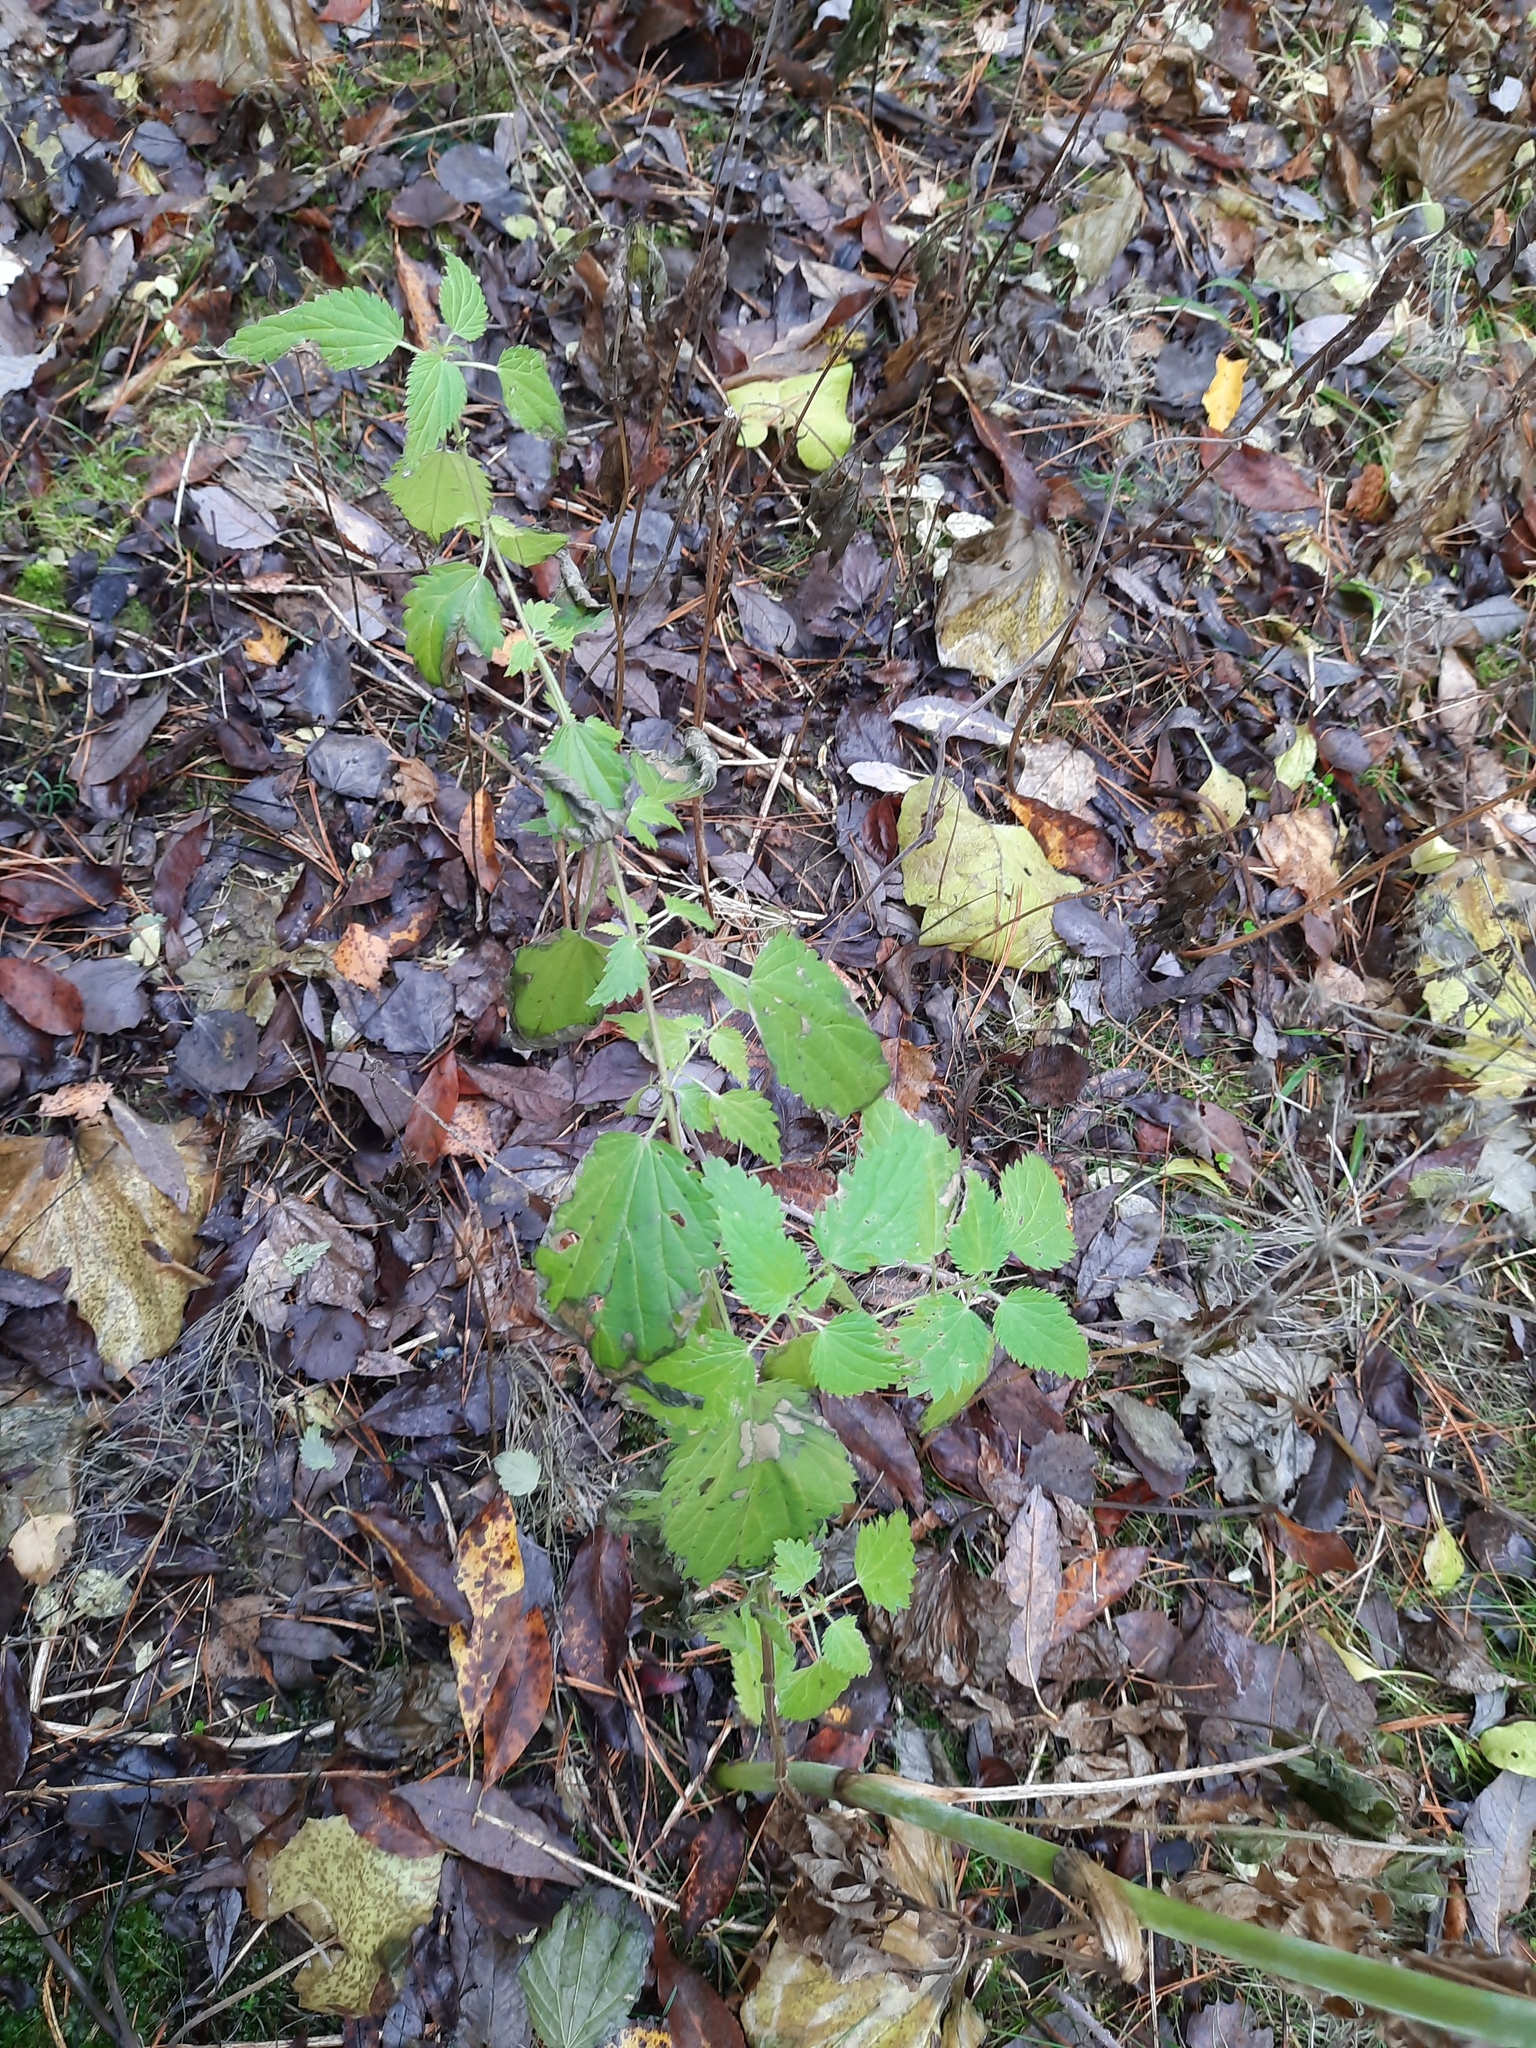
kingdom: Plantae
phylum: Tracheophyta
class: Magnoliopsida
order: Rosales
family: Urticaceae
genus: Urtica
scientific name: Urtica dioica
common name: Common nettle
